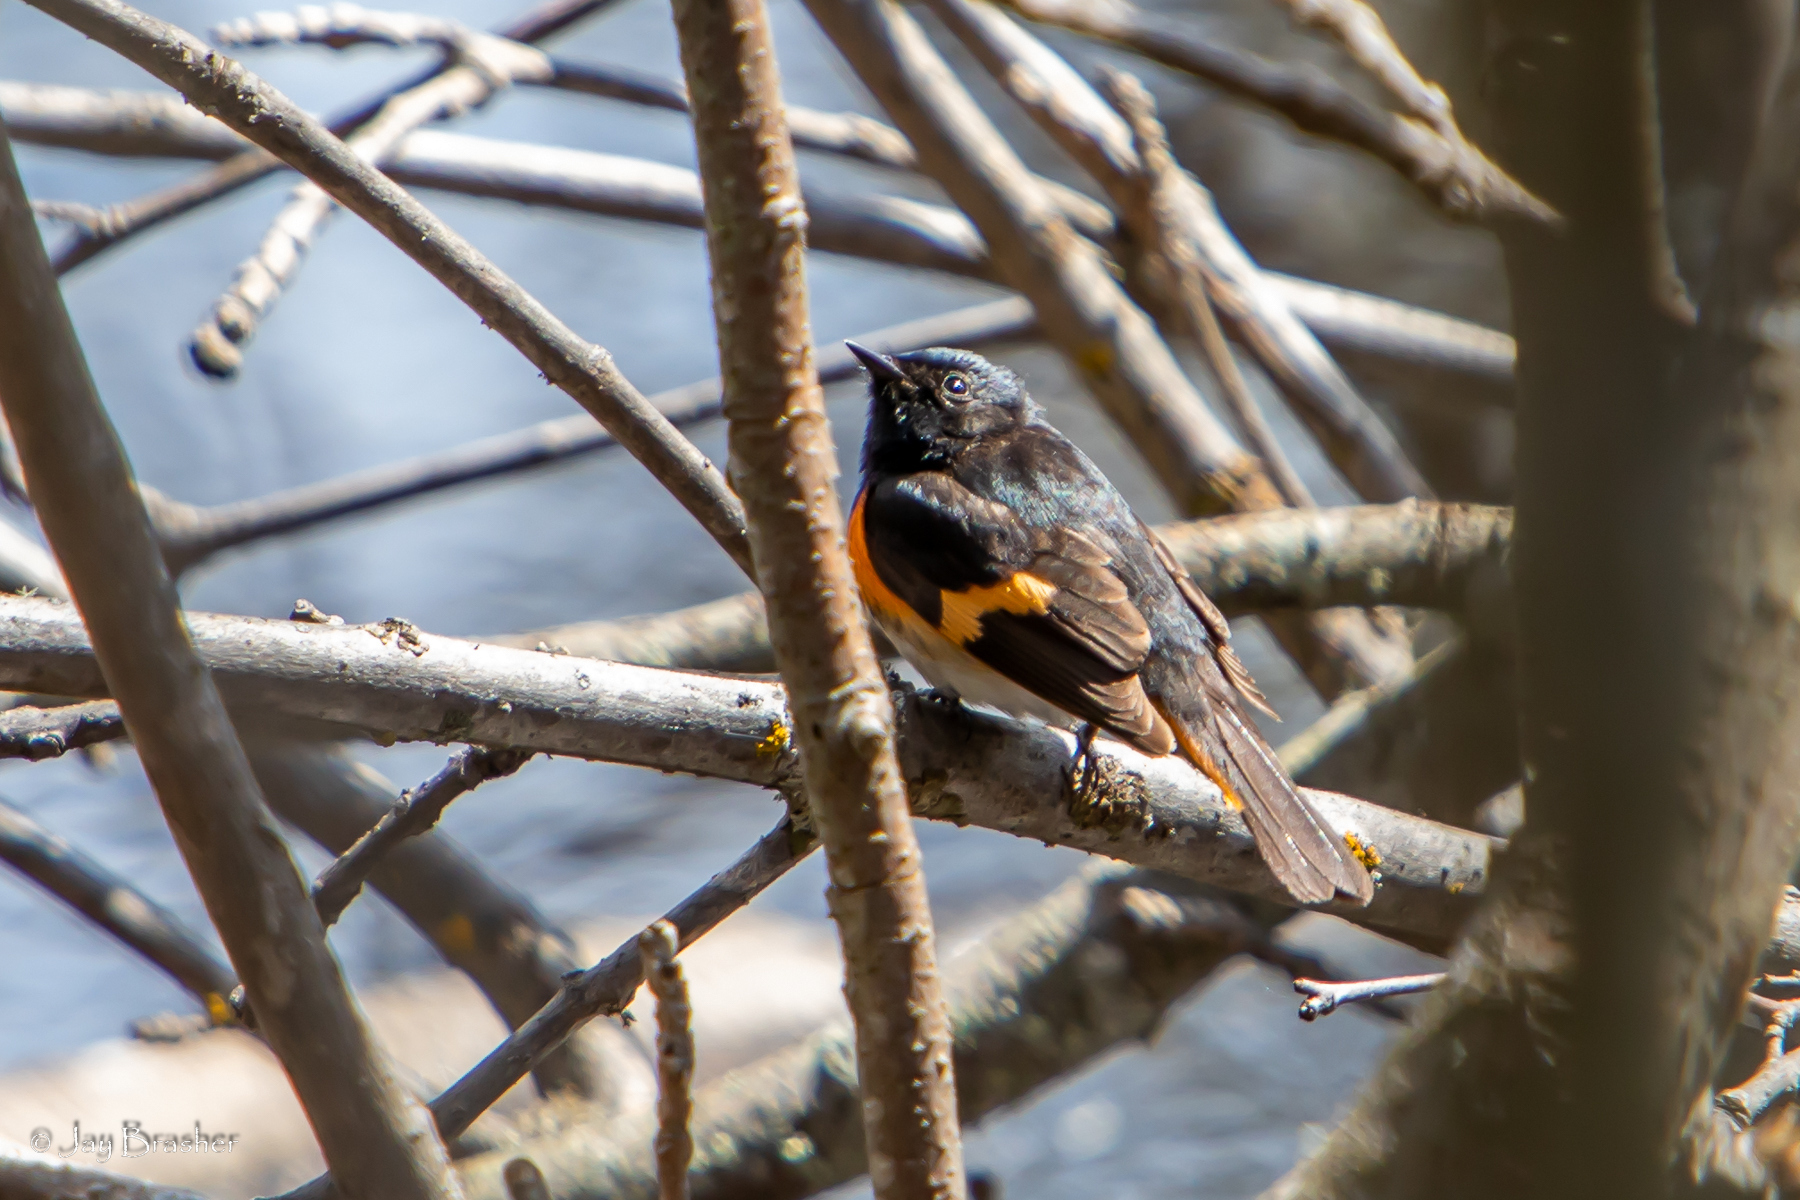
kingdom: Animalia
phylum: Chordata
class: Aves
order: Passeriformes
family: Parulidae
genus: Setophaga
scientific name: Setophaga ruticilla
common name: American redstart
